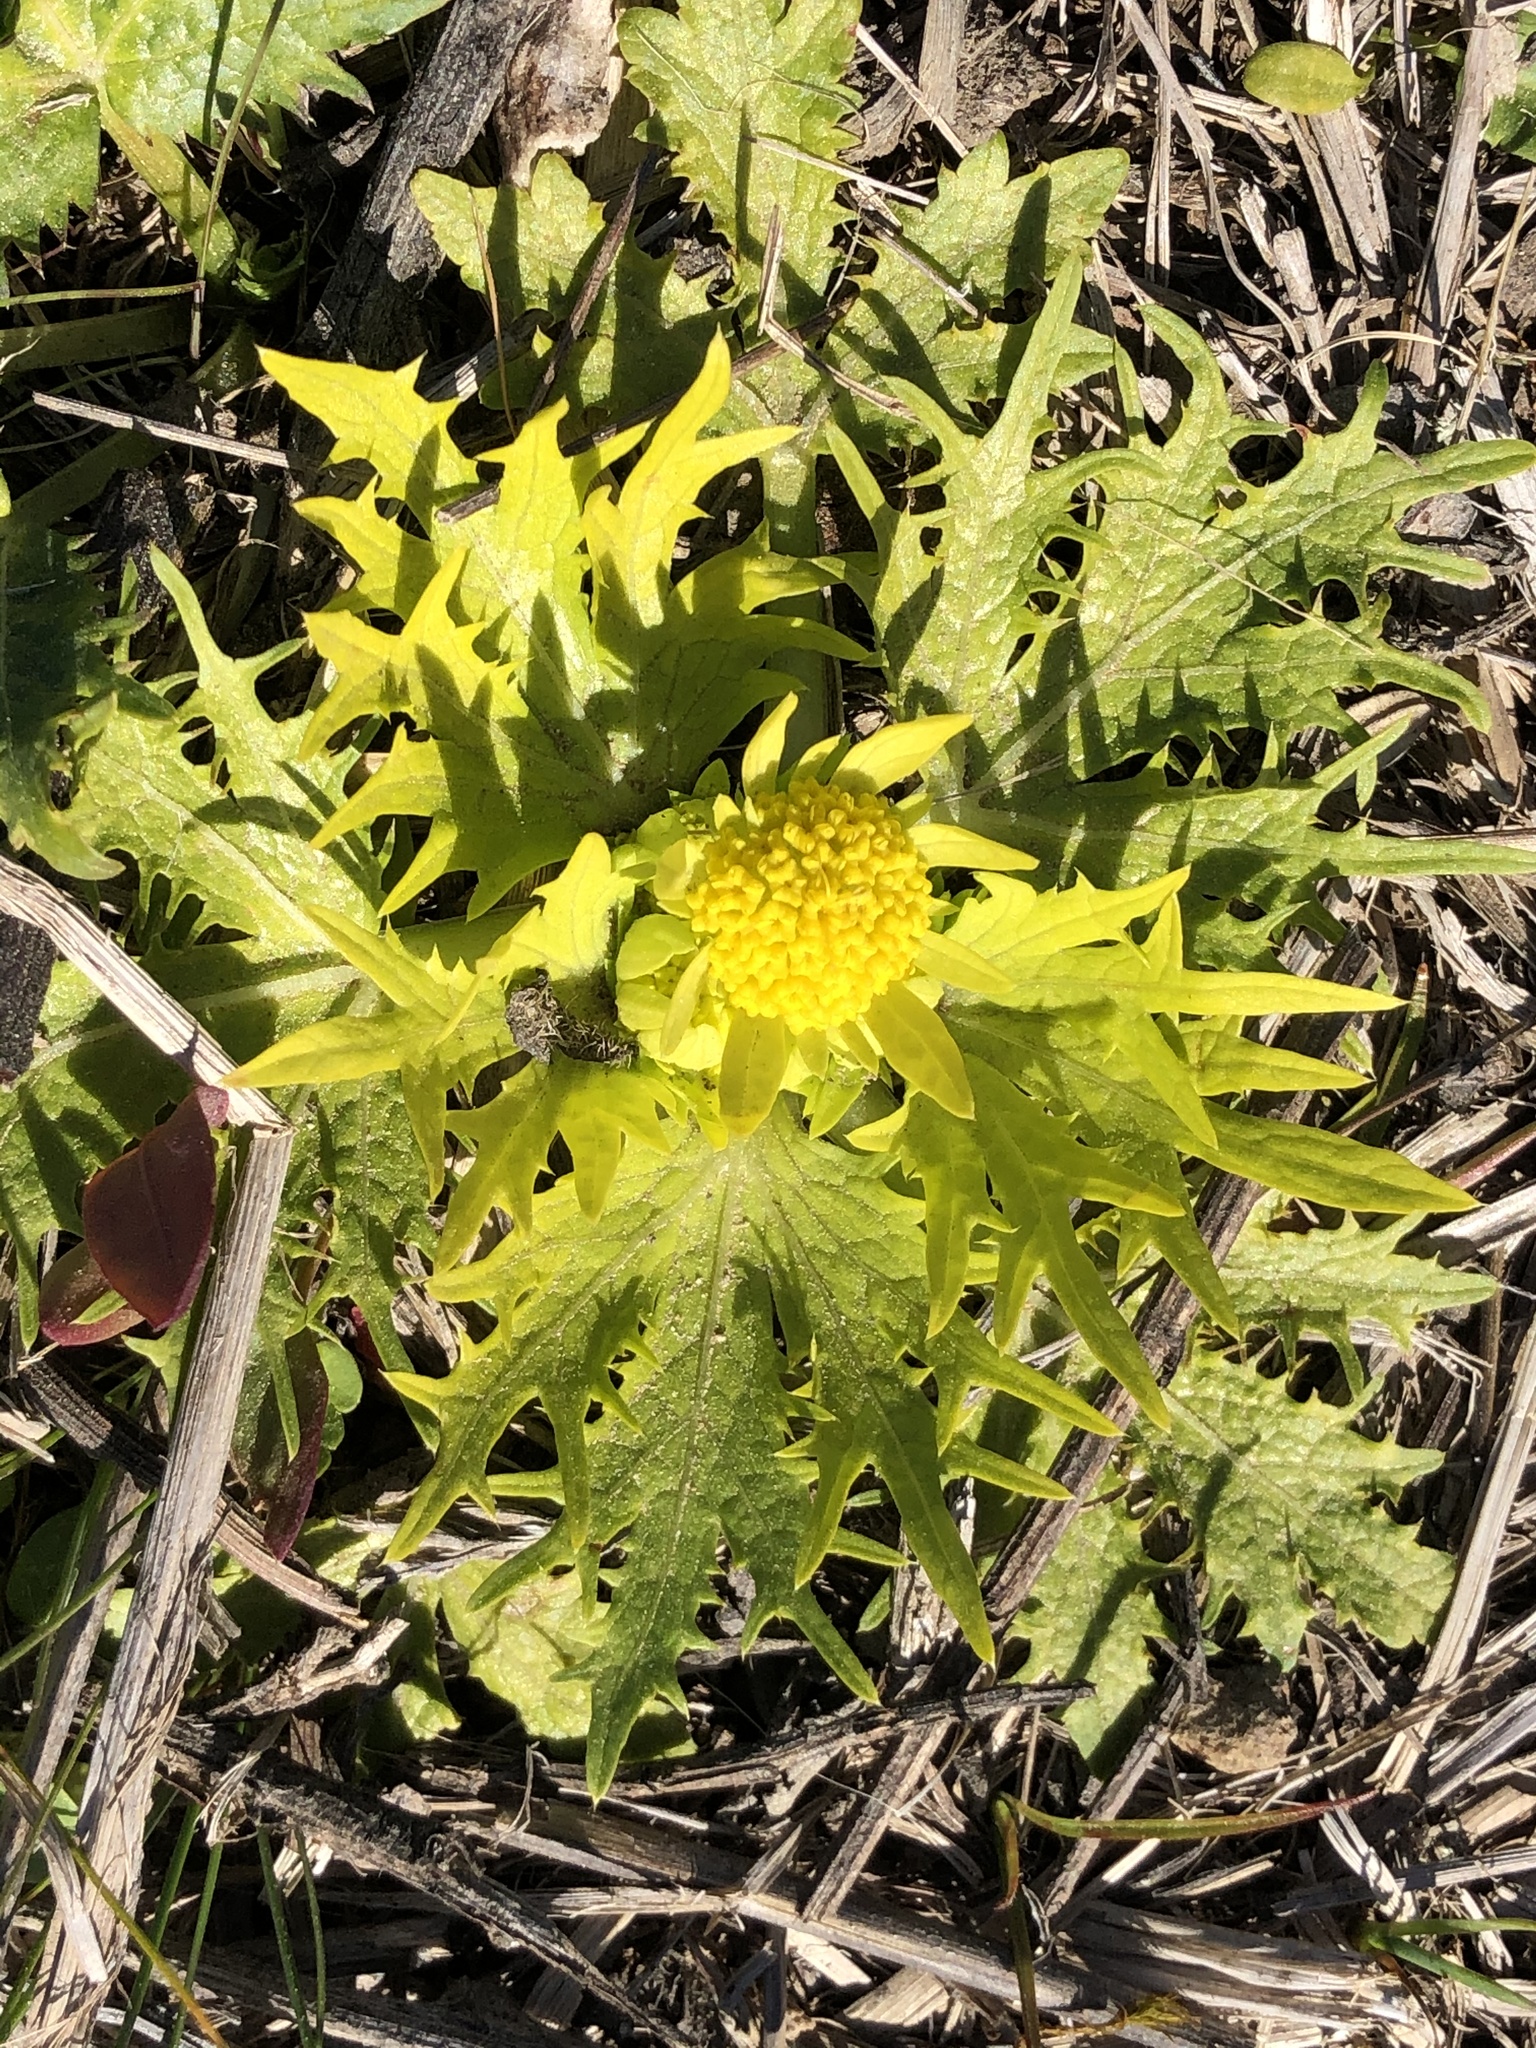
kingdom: Plantae
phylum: Tracheophyta
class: Magnoliopsida
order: Apiales
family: Apiaceae
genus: Sanicula
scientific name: Sanicula arctopoides
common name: Footsteps-of-spring
